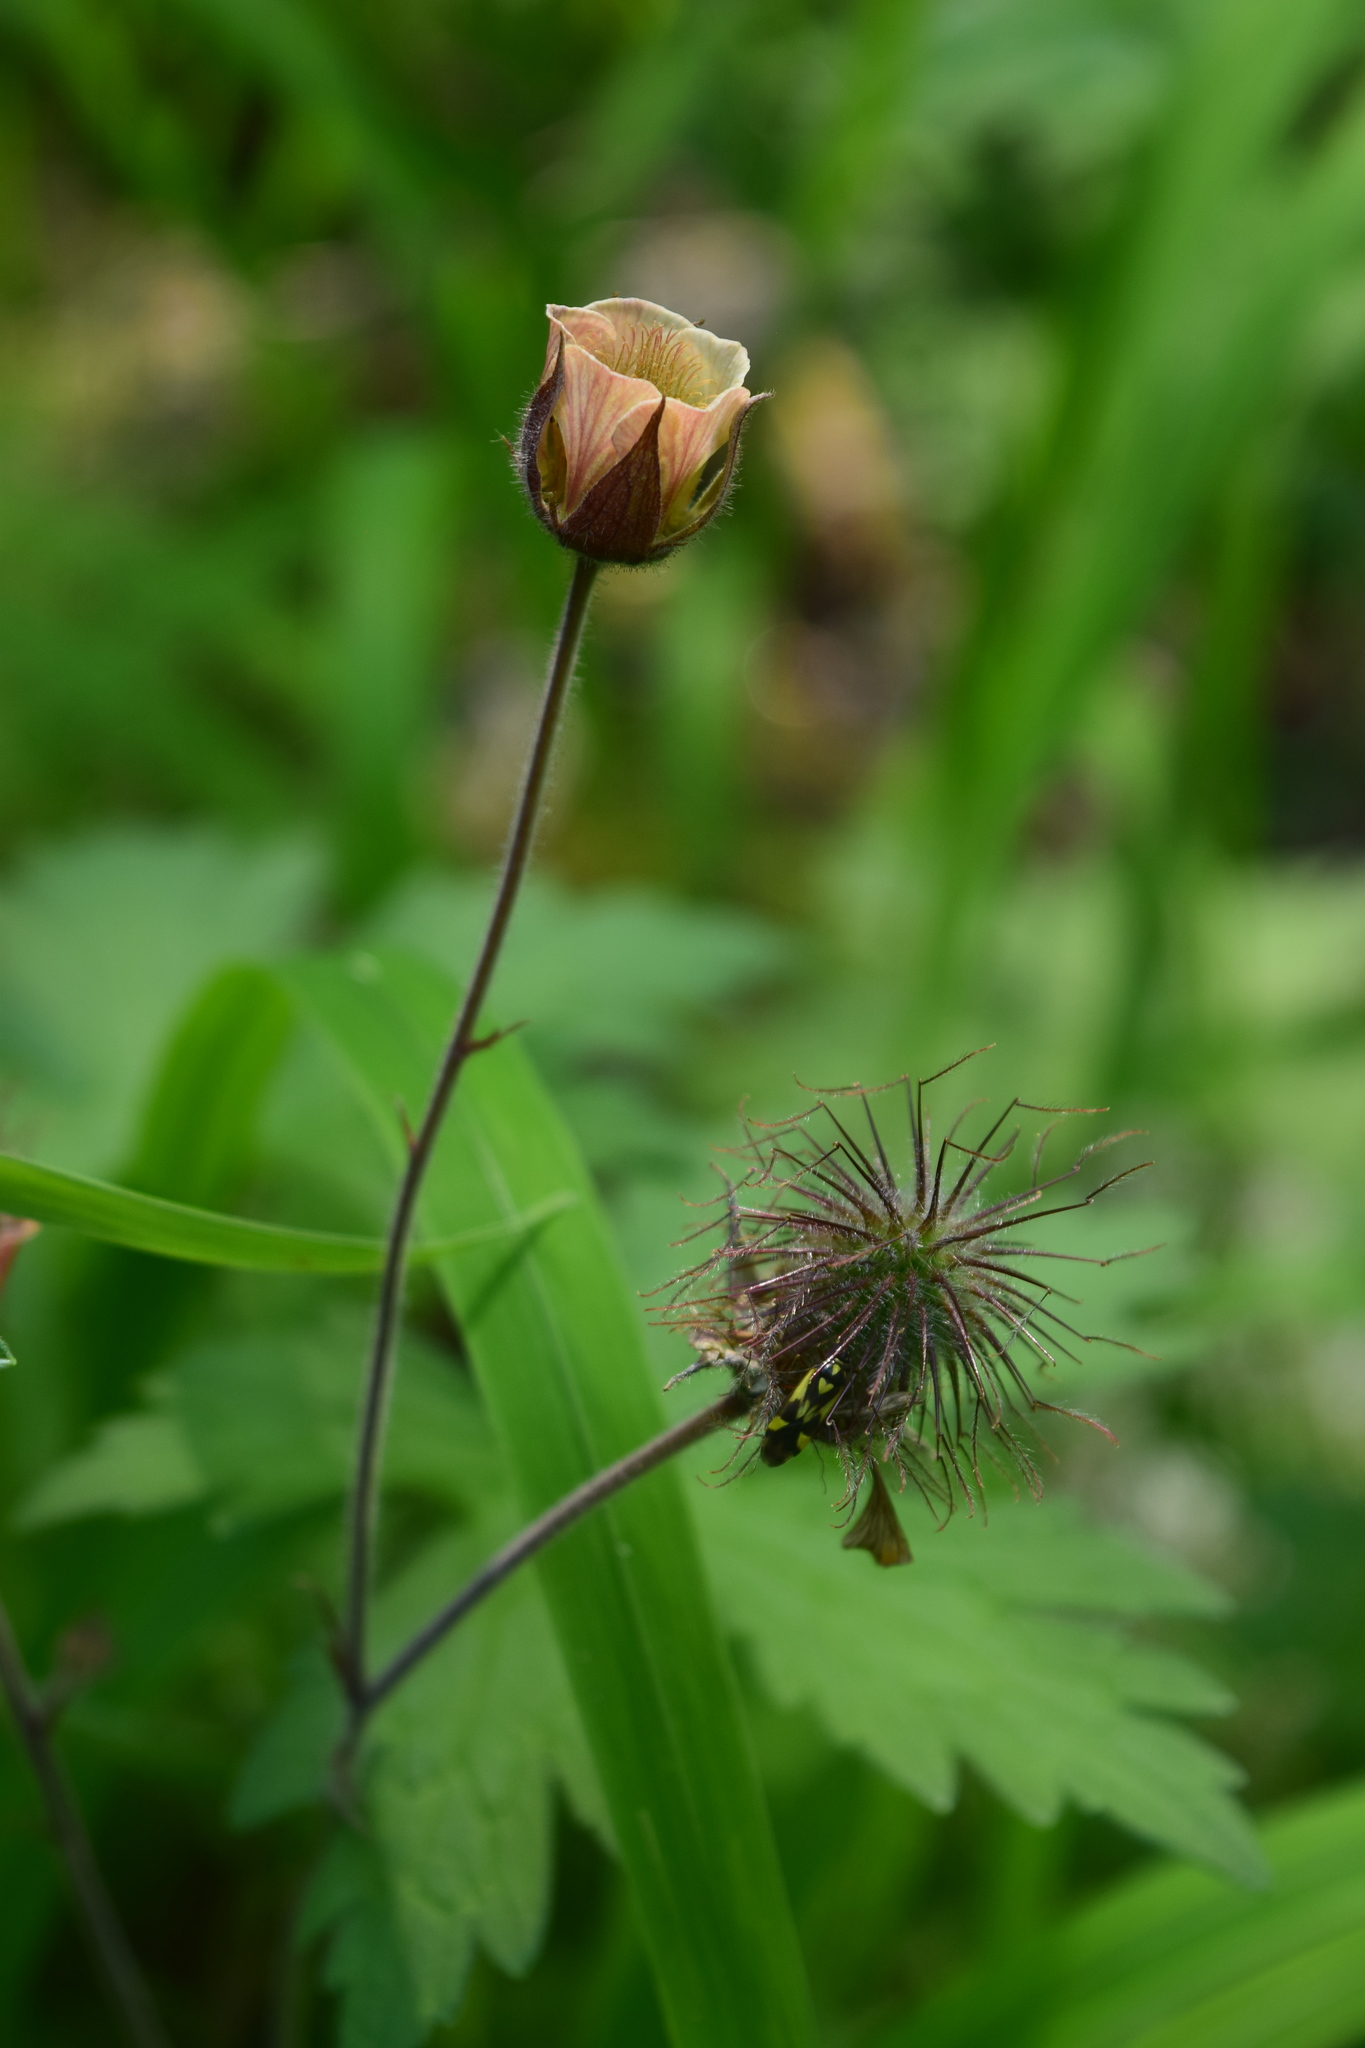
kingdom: Plantae
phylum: Tracheophyta
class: Magnoliopsida
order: Rosales
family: Rosaceae
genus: Geum
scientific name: Geum rivale
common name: Water avens
